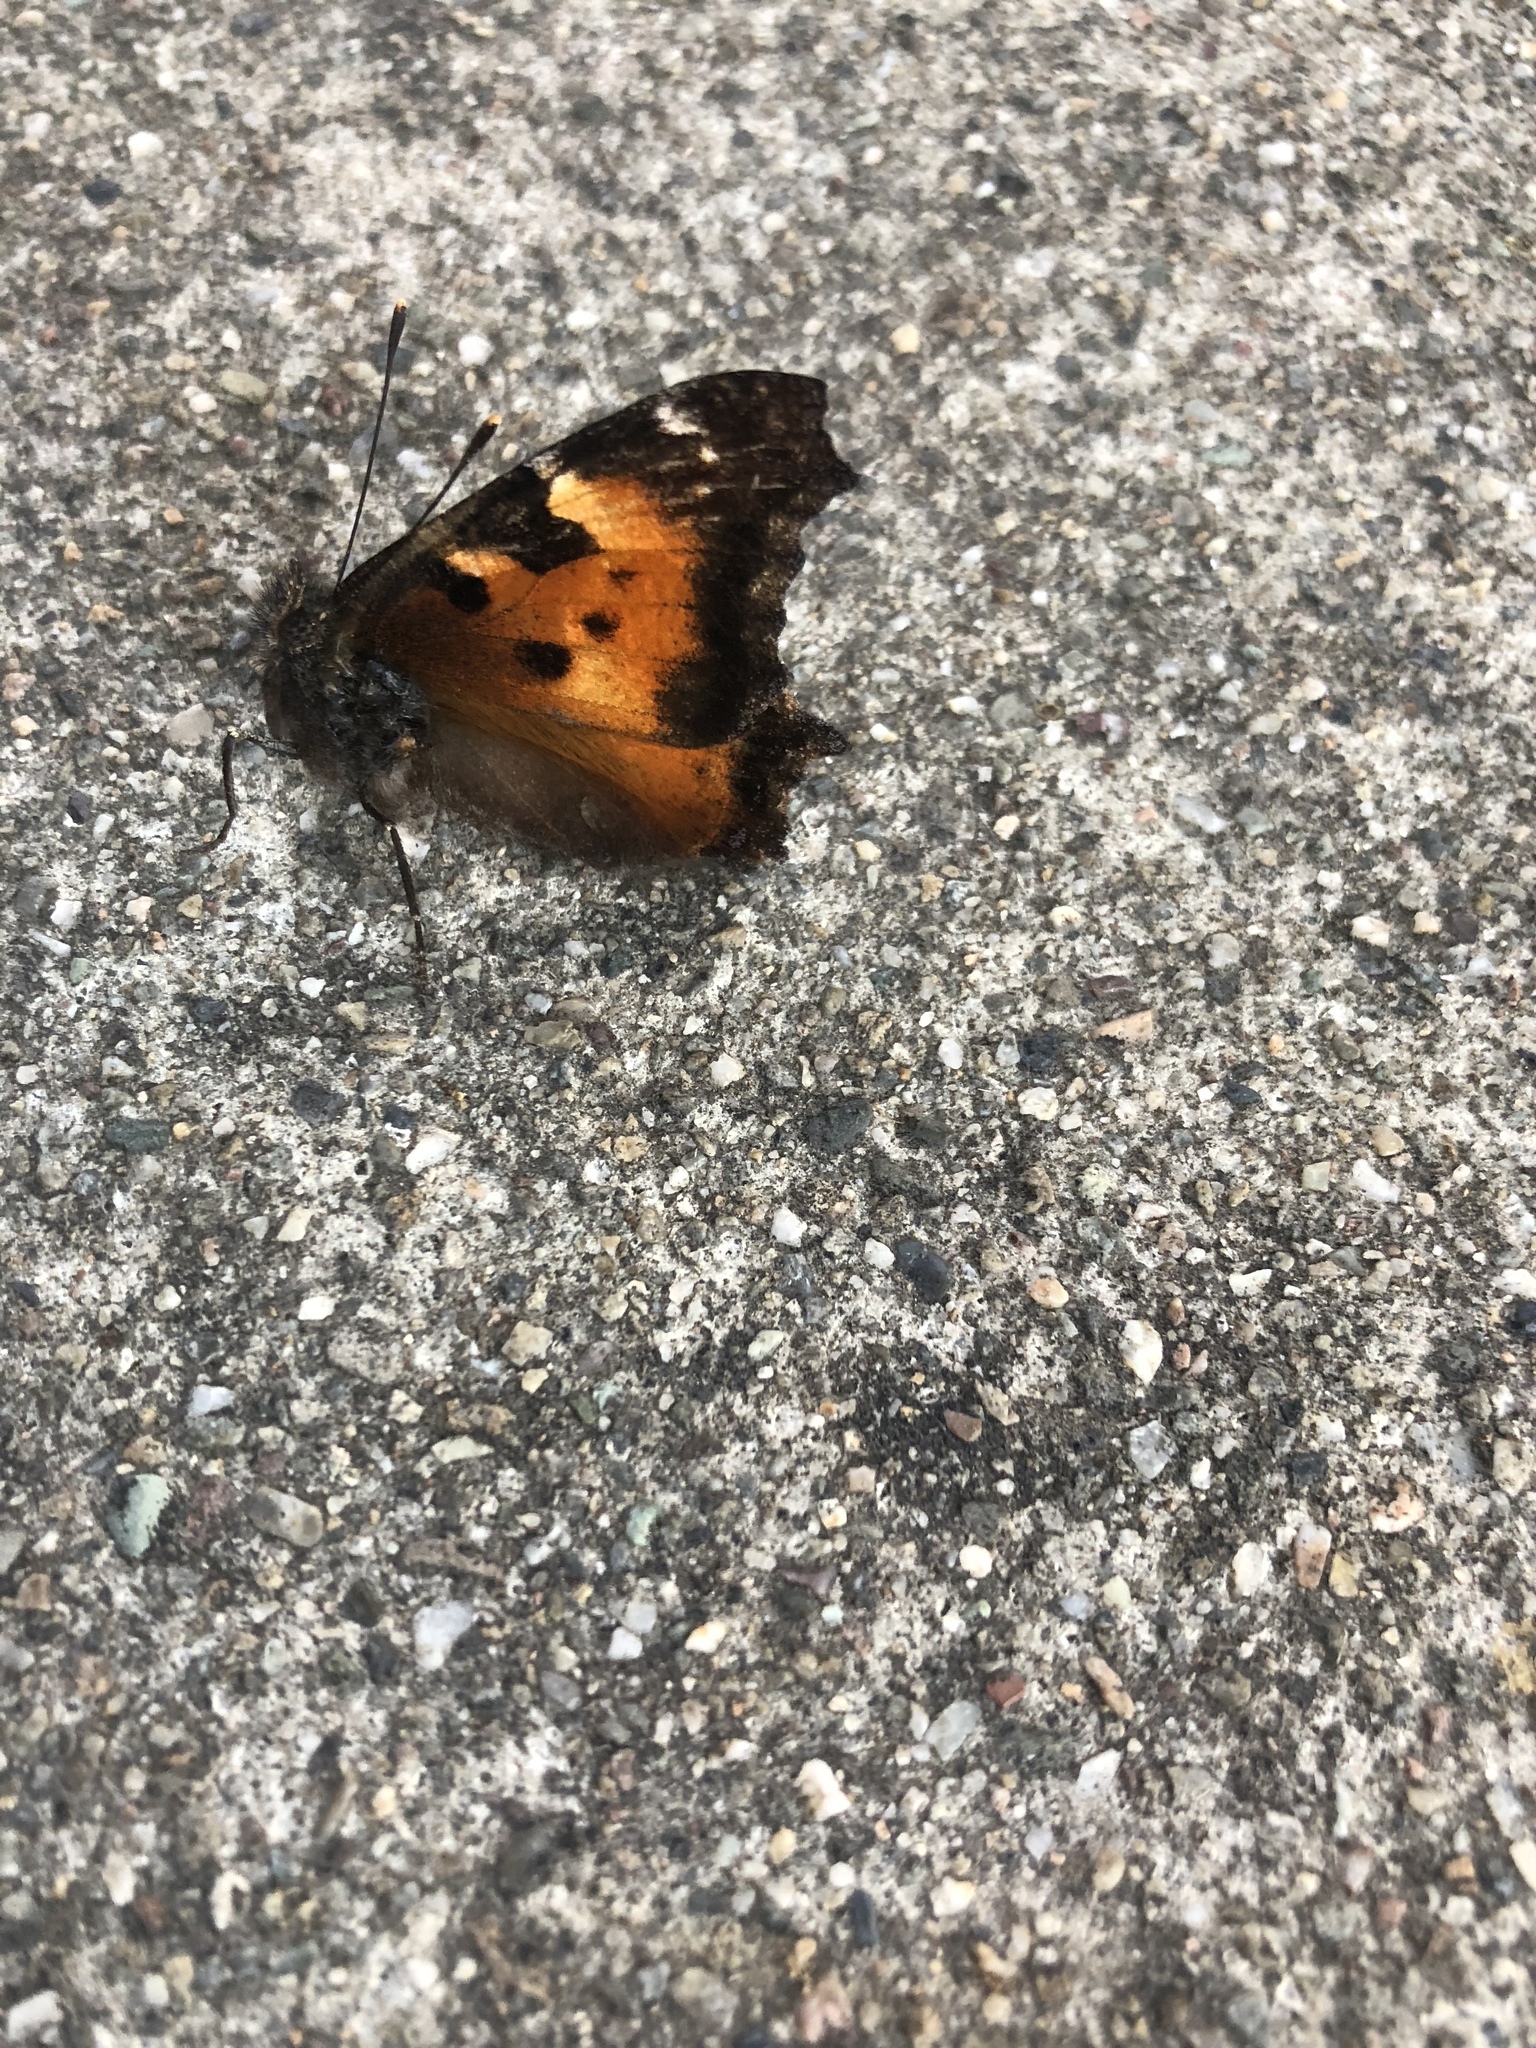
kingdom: Animalia
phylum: Arthropoda
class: Insecta
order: Lepidoptera
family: Nymphalidae
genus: Nymphalis
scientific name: Nymphalis californica
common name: California tortoiseshell
